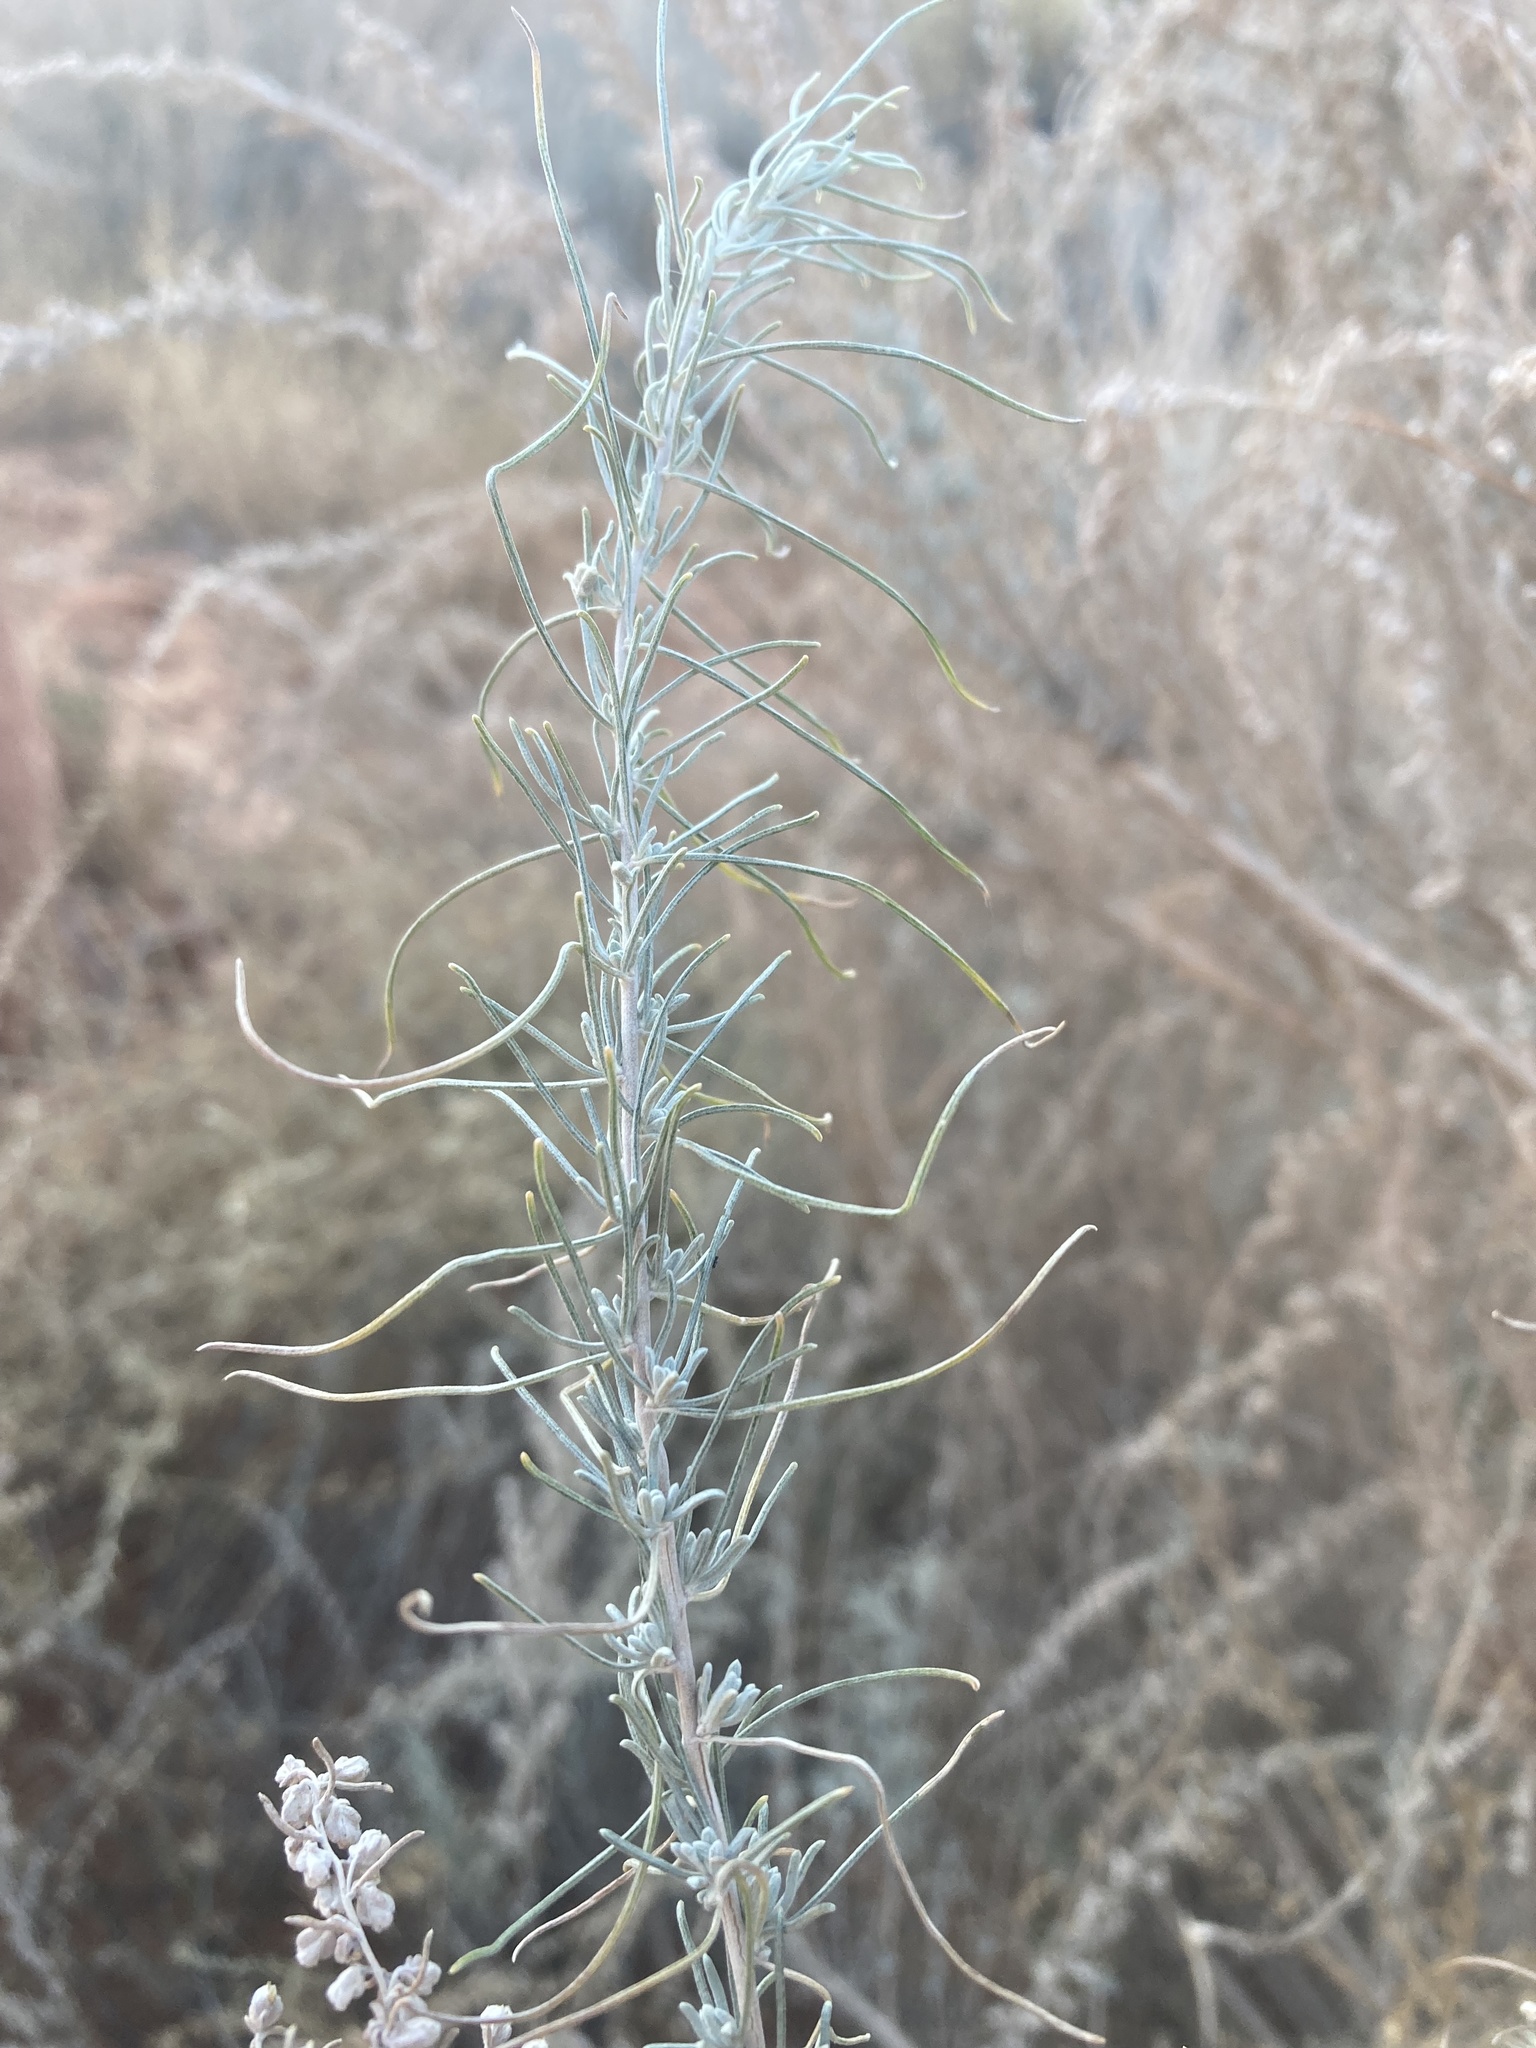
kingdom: Plantae
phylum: Tracheophyta
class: Magnoliopsida
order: Asterales
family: Asteraceae
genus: Artemisia
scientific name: Artemisia filifolia
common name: Sand-sage
